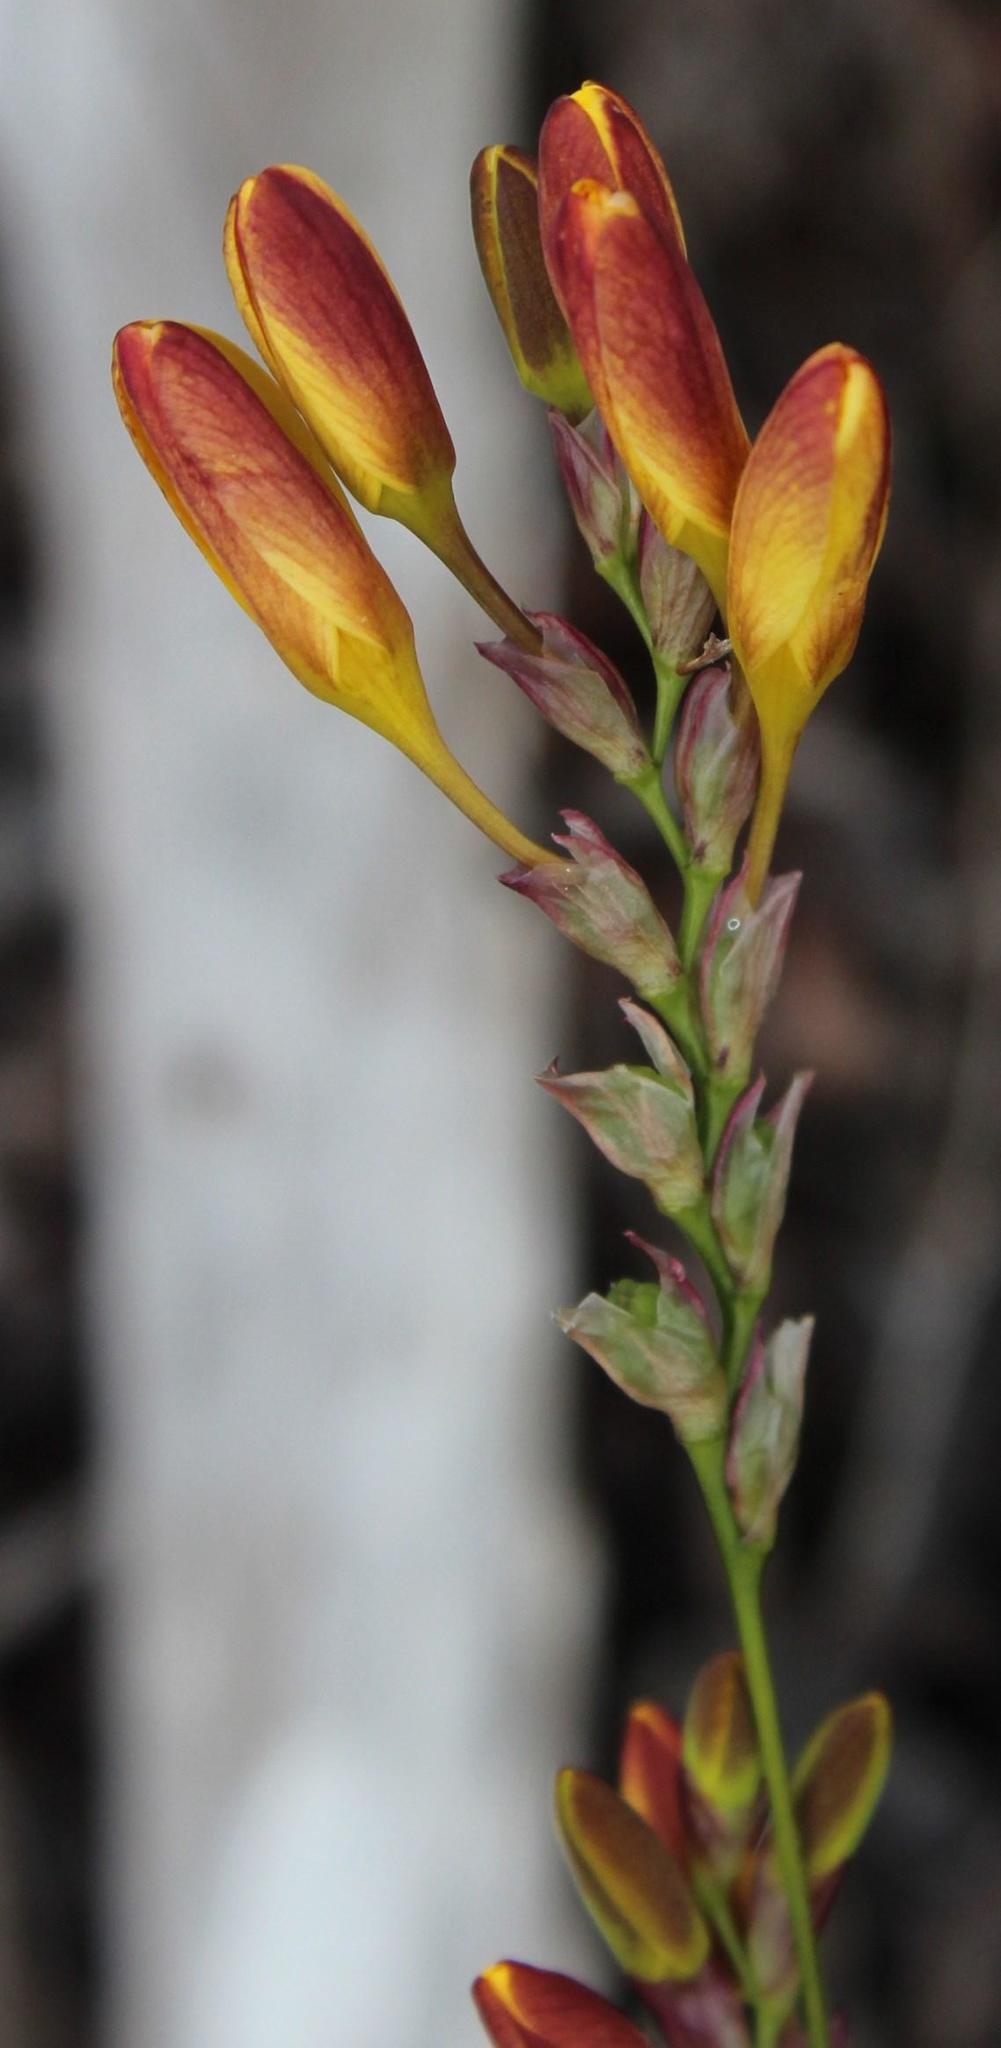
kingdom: Plantae
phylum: Tracheophyta
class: Liliopsida
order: Asparagales
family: Iridaceae
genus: Ixia
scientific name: Ixia dubia
